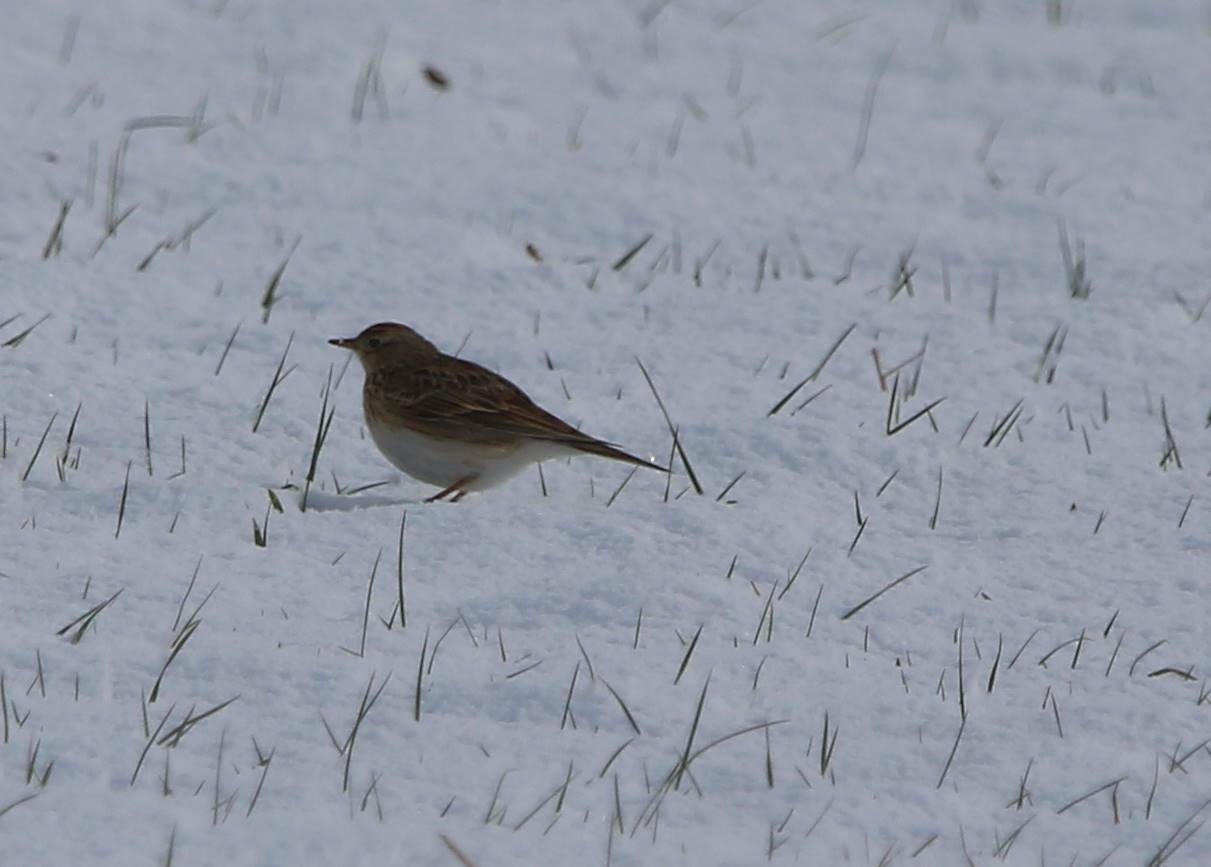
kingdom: Animalia
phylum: Chordata
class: Aves
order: Passeriformes
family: Alaudidae
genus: Alauda
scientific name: Alauda arvensis
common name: Eurasian skylark
